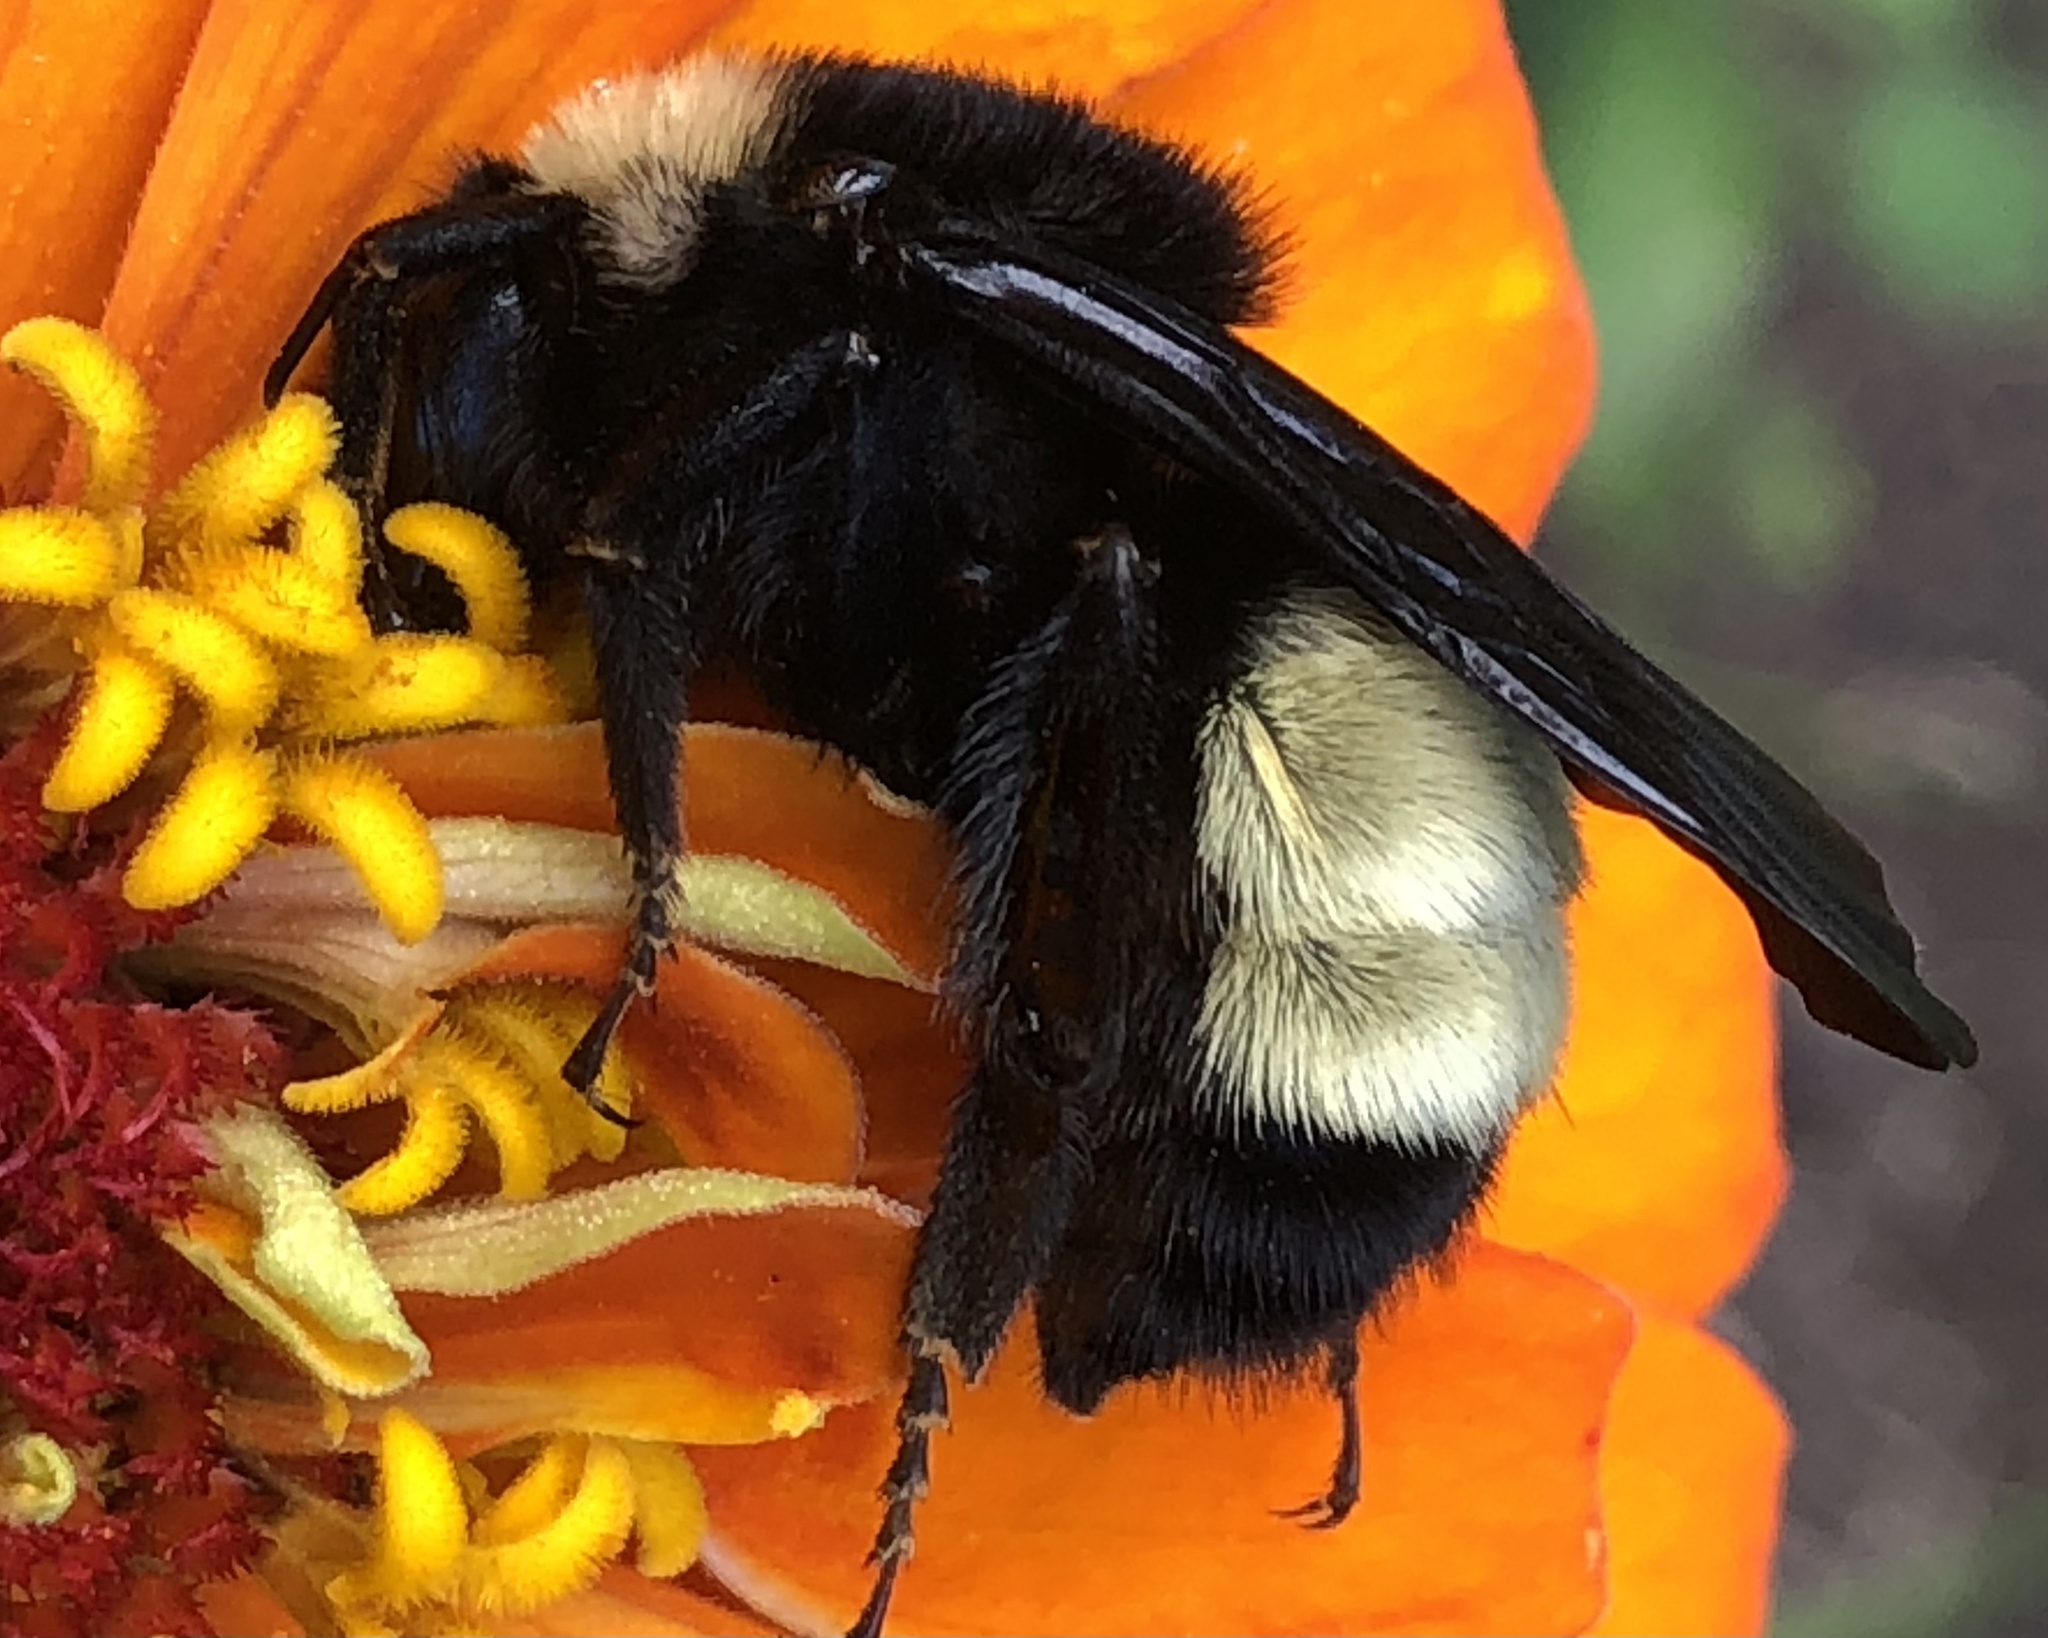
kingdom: Animalia
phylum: Arthropoda
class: Insecta
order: Hymenoptera
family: Apidae
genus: Bombus
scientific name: Bombus pensylvanicus
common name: Bumble bee
